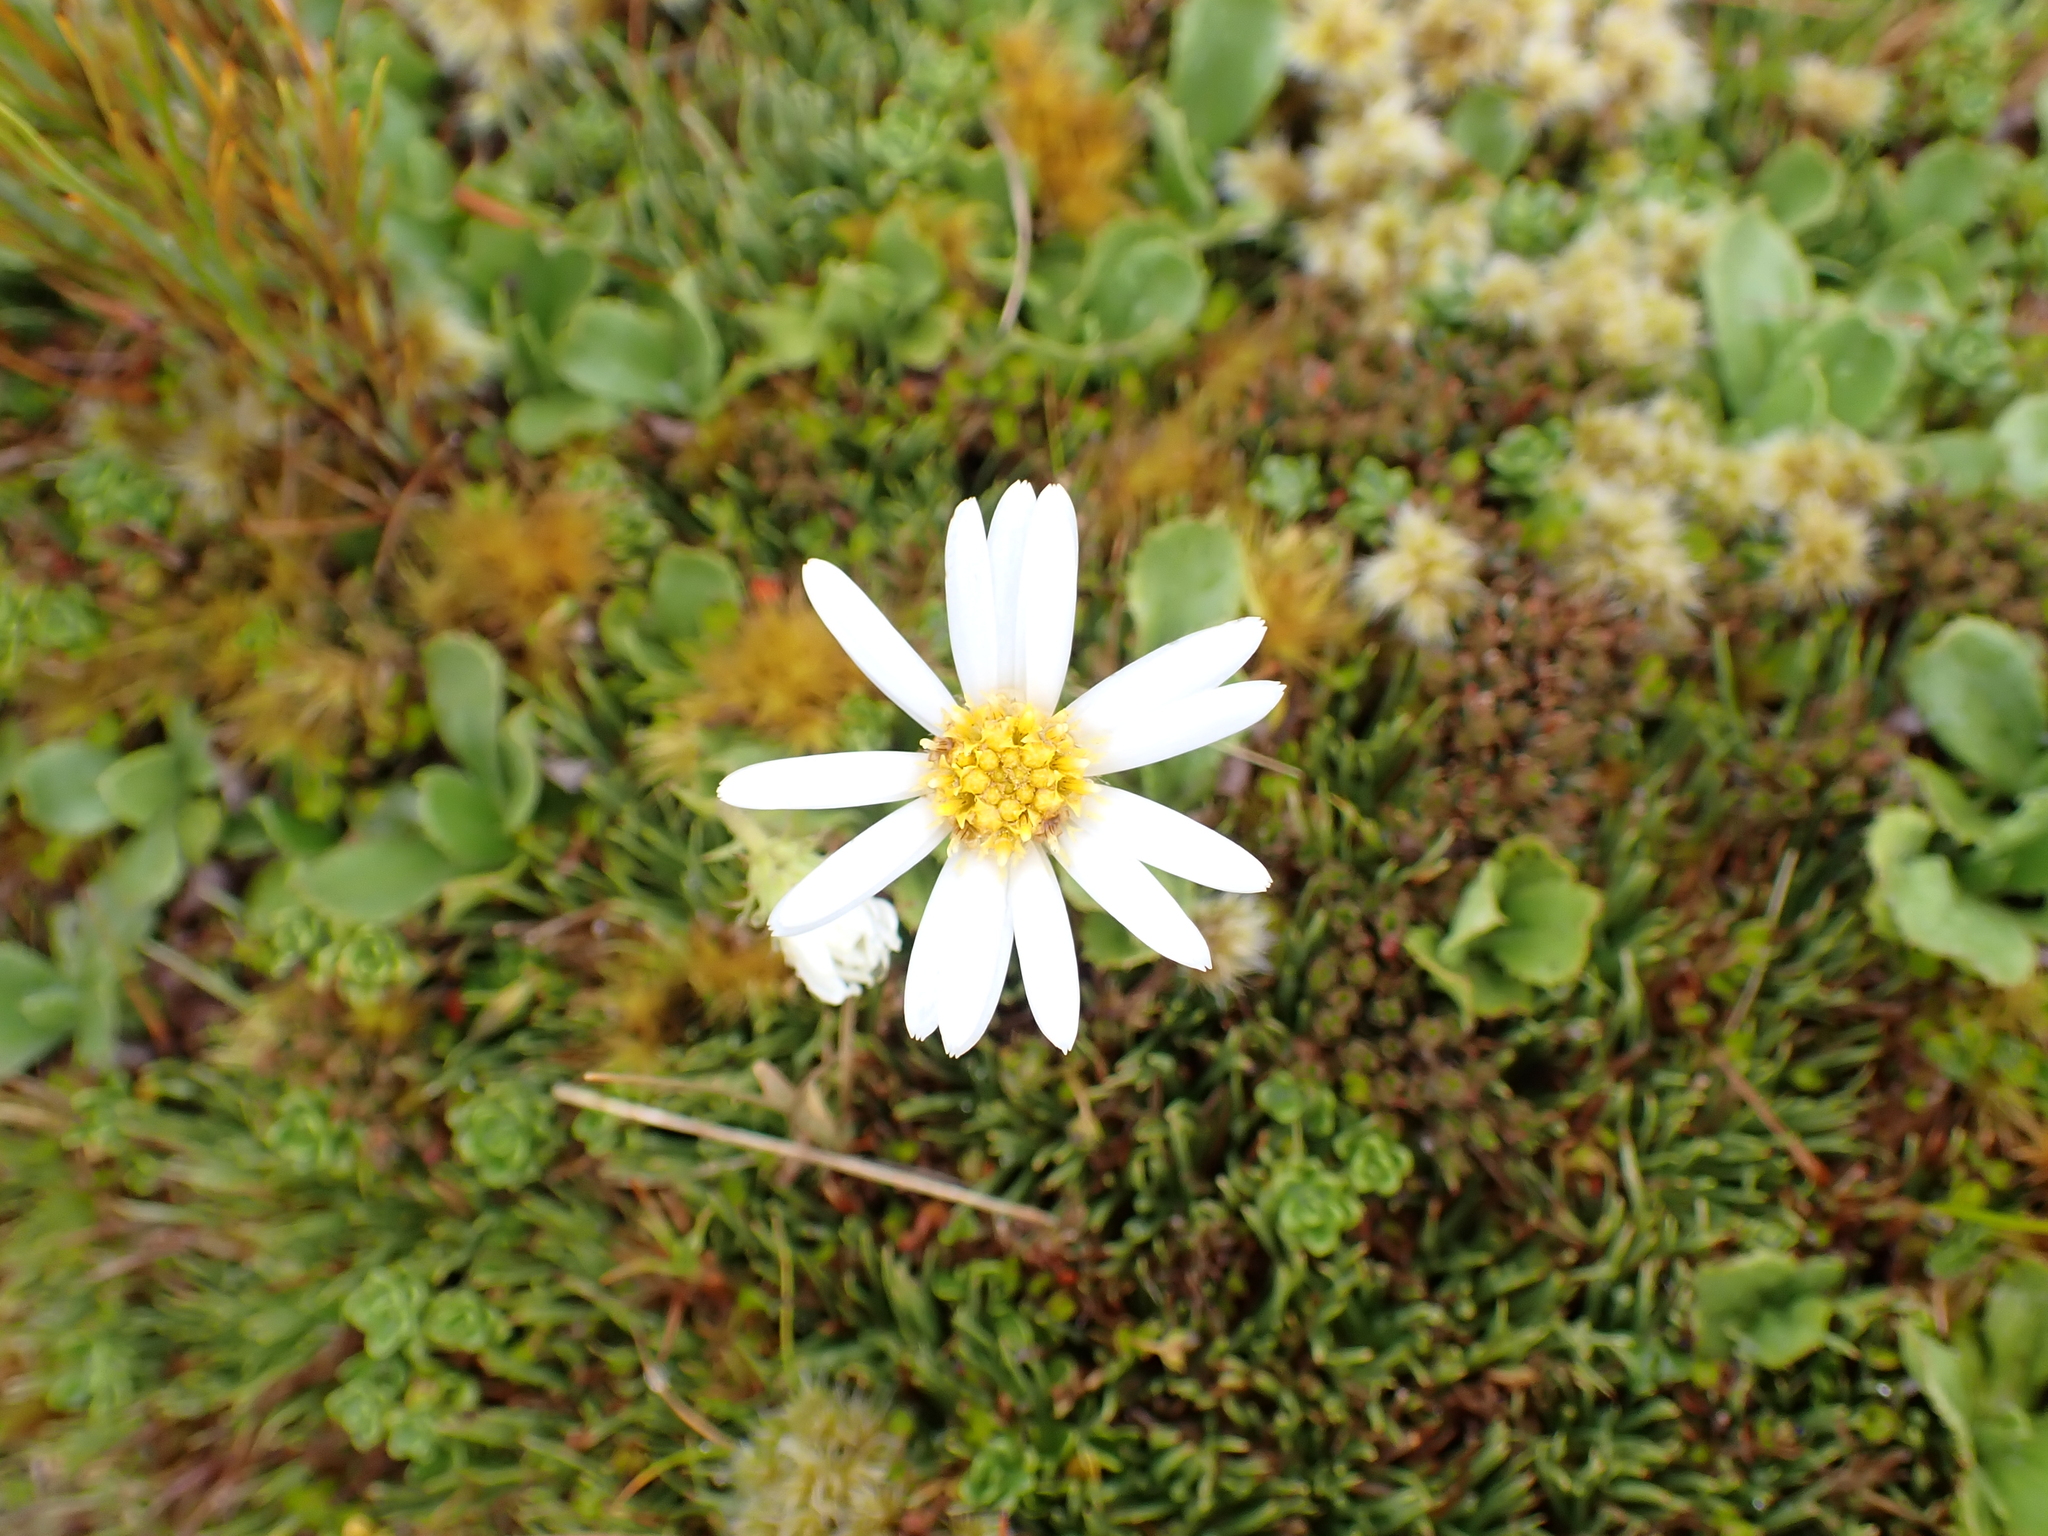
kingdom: Plantae
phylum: Tracheophyta
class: Magnoliopsida
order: Asterales
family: Asteraceae
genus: Celmisia
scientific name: Celmisia glandulosa
